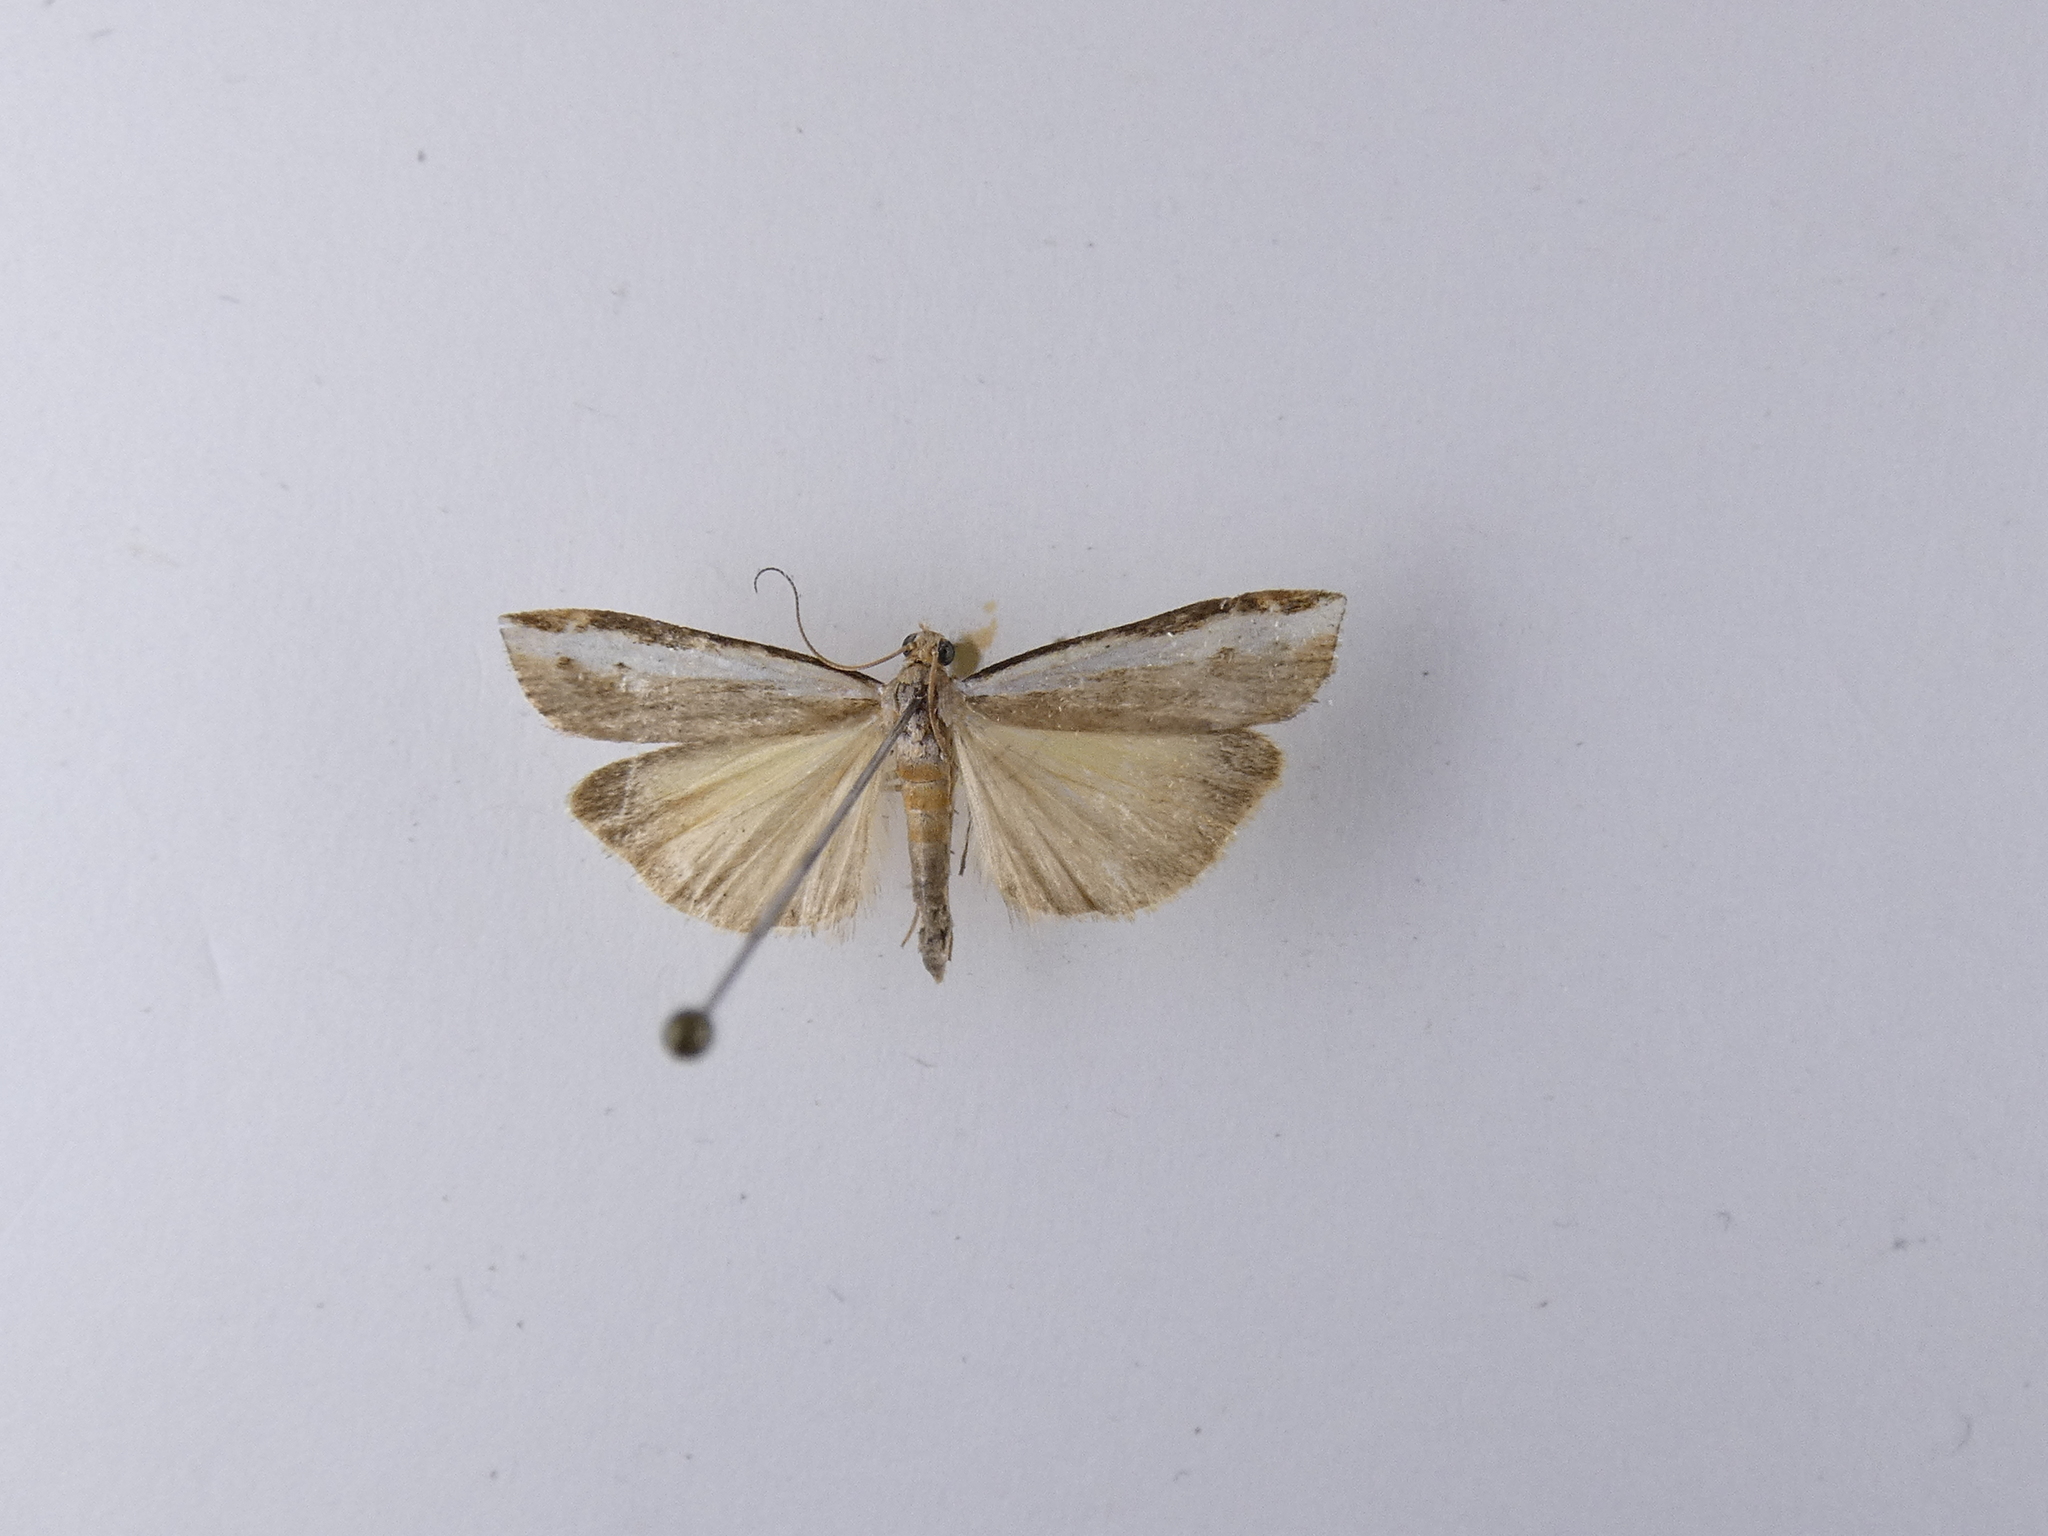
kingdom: Animalia
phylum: Arthropoda
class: Insecta
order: Lepidoptera
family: Crambidae
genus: Orocrambus
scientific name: Orocrambus flexuosellus
